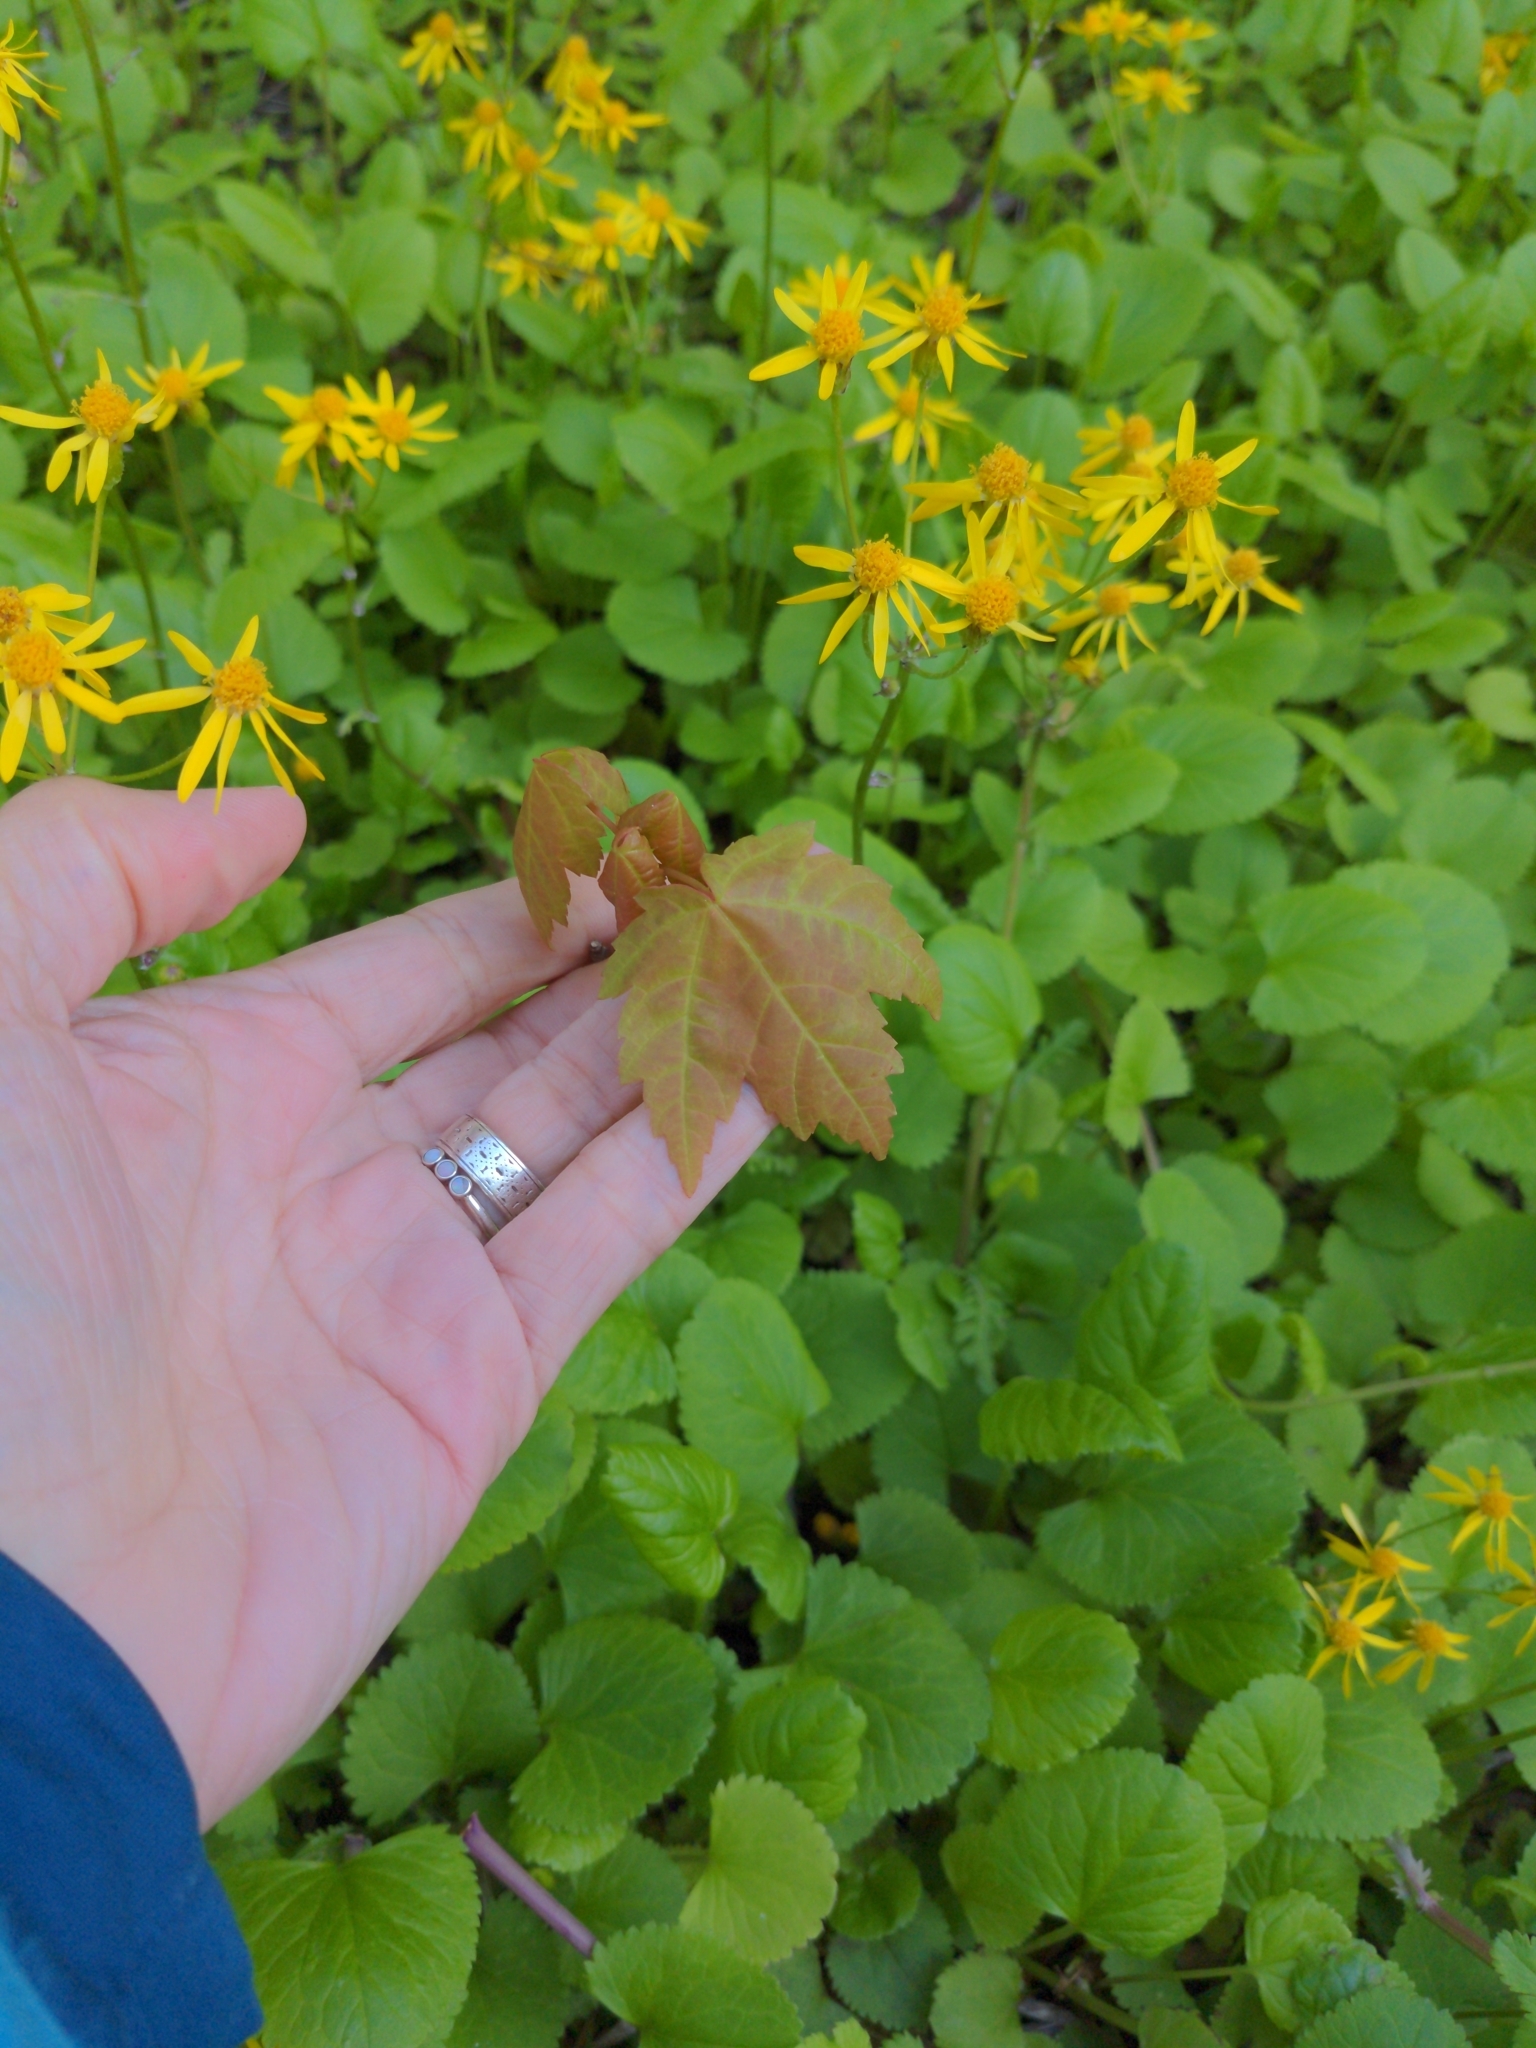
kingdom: Plantae
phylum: Tracheophyta
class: Magnoliopsida
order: Sapindales
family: Sapindaceae
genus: Acer
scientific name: Acer rubrum
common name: Red maple
